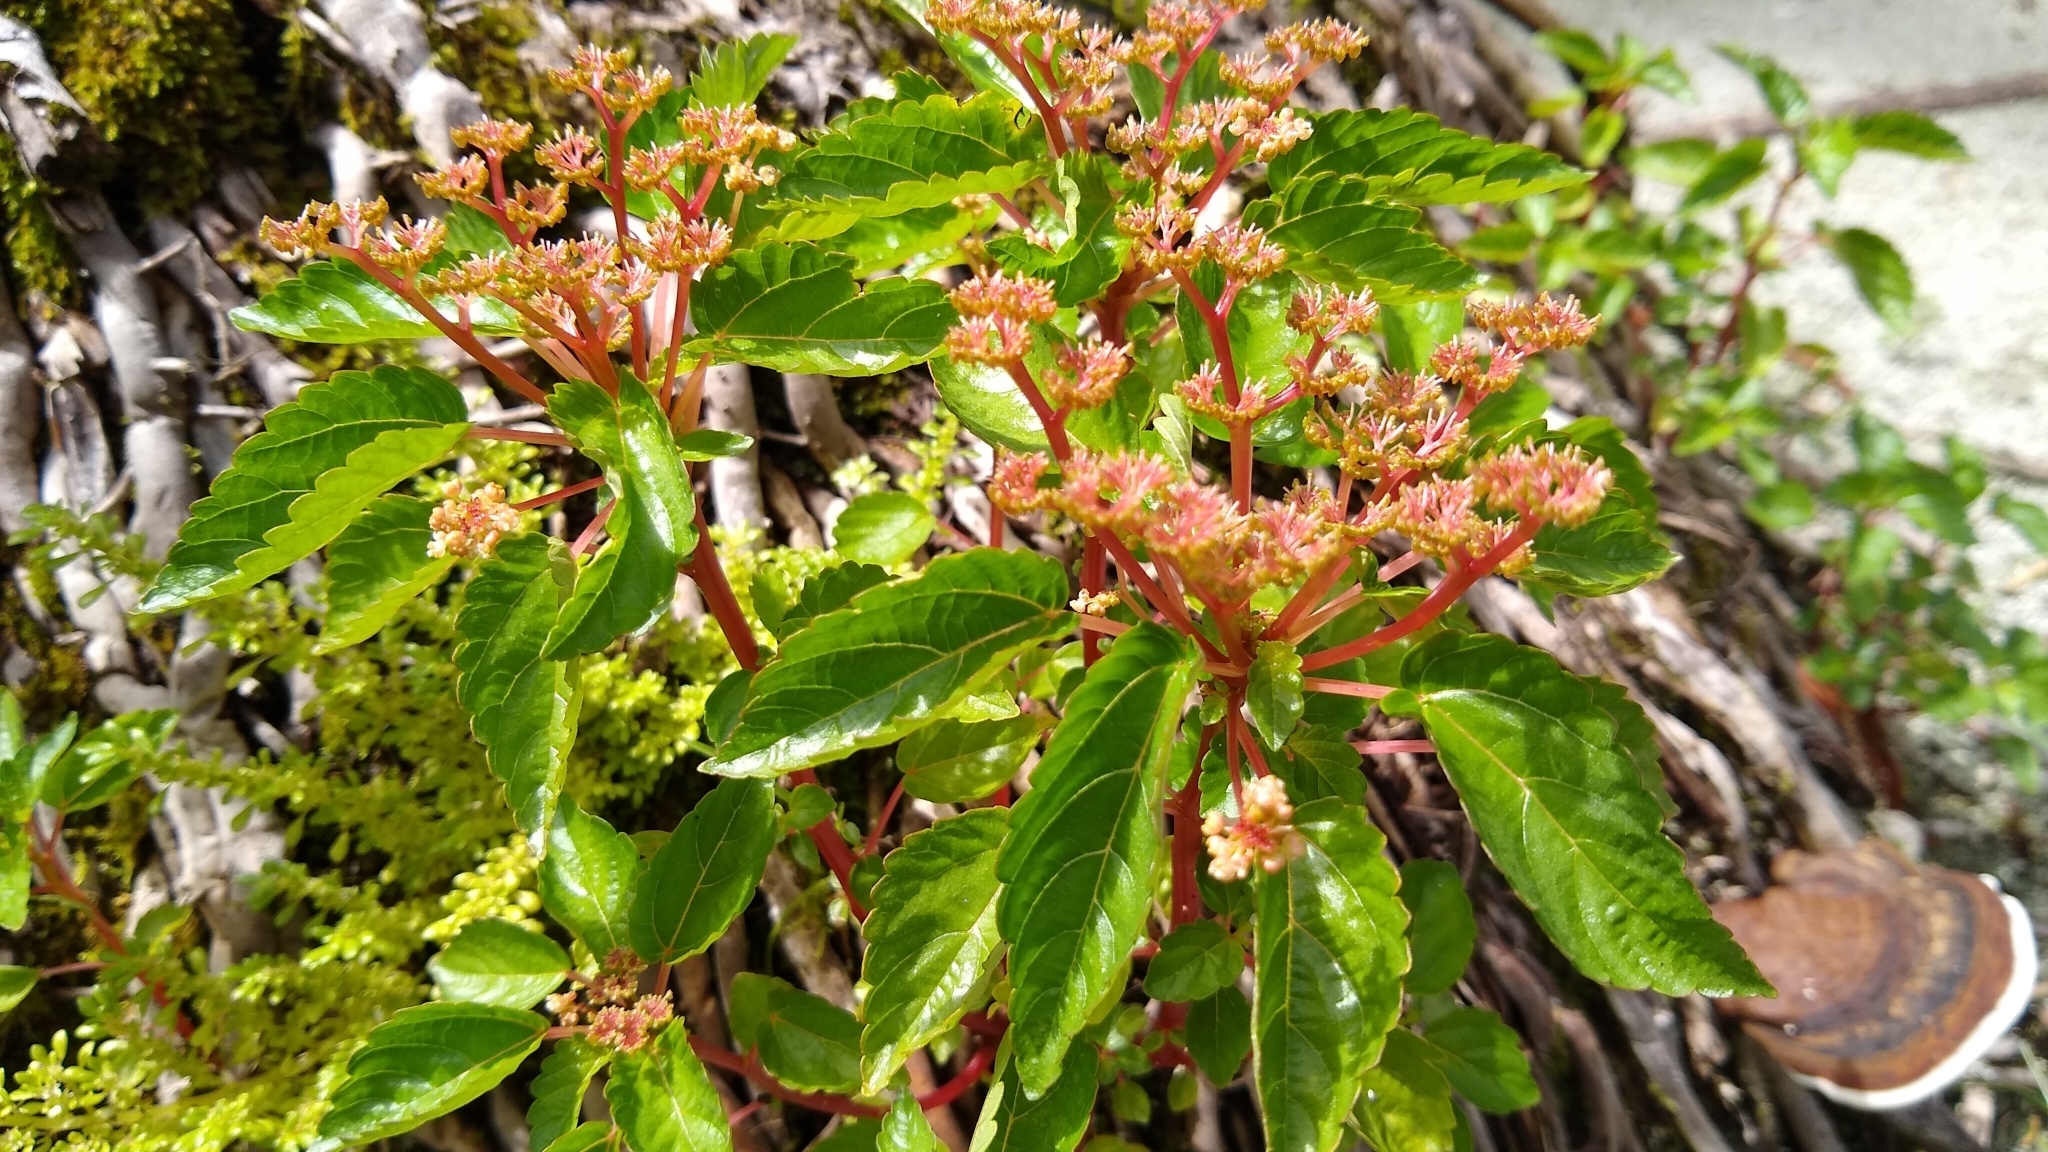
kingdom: Plantae
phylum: Tracheophyta
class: Magnoliopsida
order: Rosales
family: Urticaceae
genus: Laportea
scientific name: Laportea ruderalis
